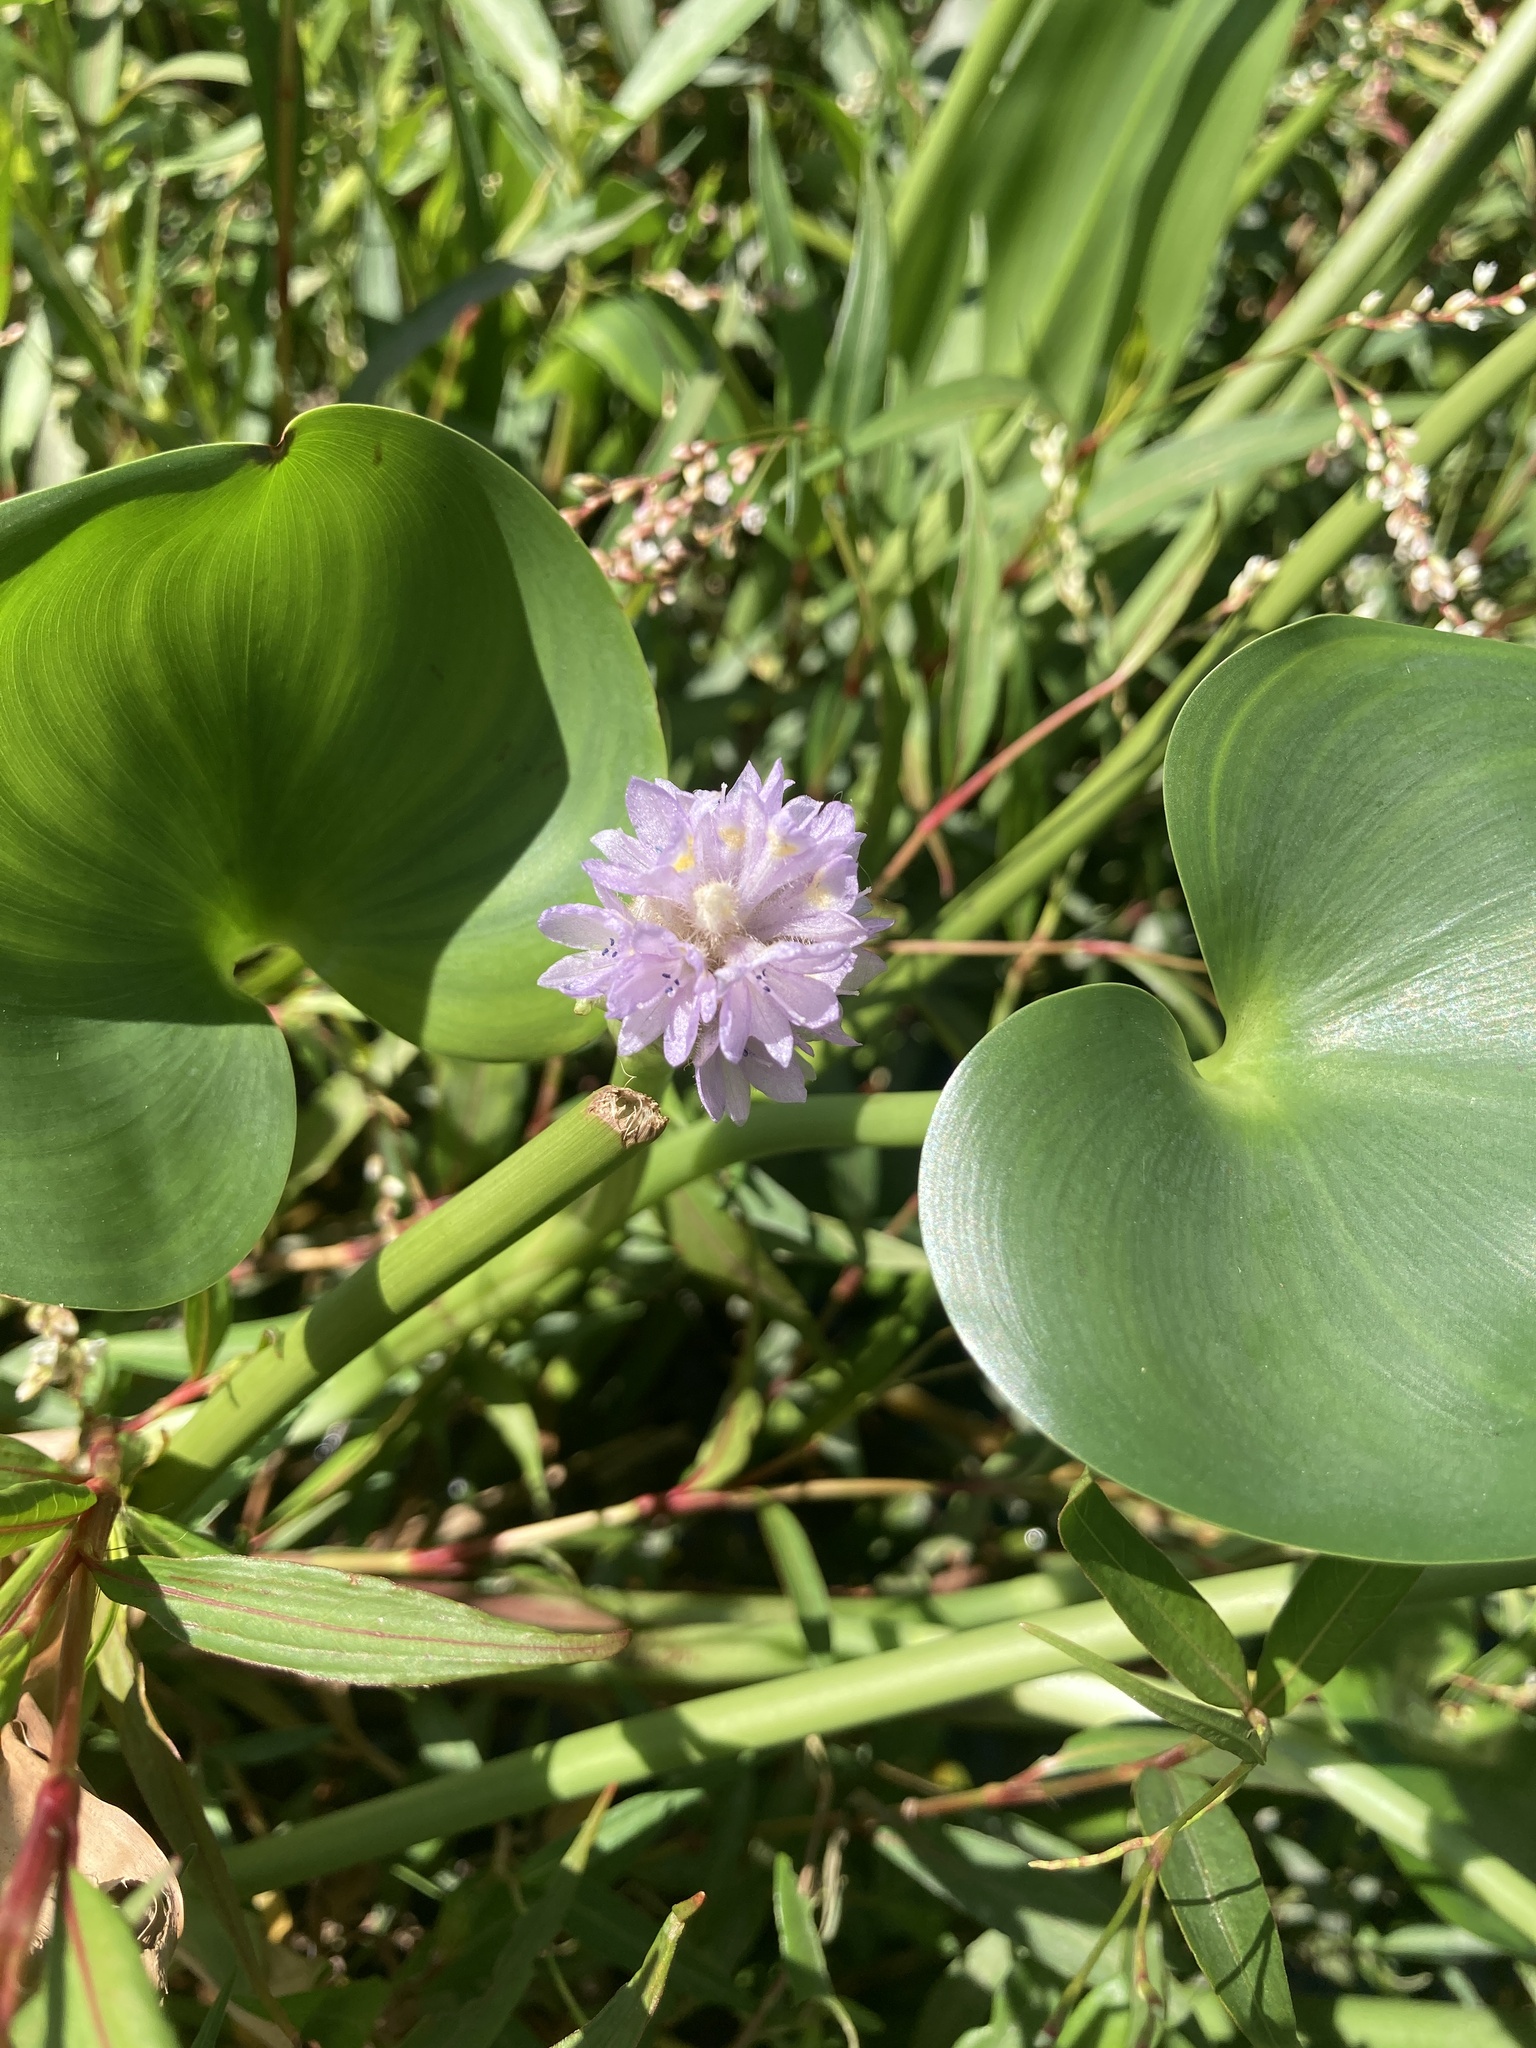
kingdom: Plantae
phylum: Tracheophyta
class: Liliopsida
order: Commelinales
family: Pontederiaceae
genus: Pontederia
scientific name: Pontederia rotundifolia
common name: Tropical pickerel-weed
